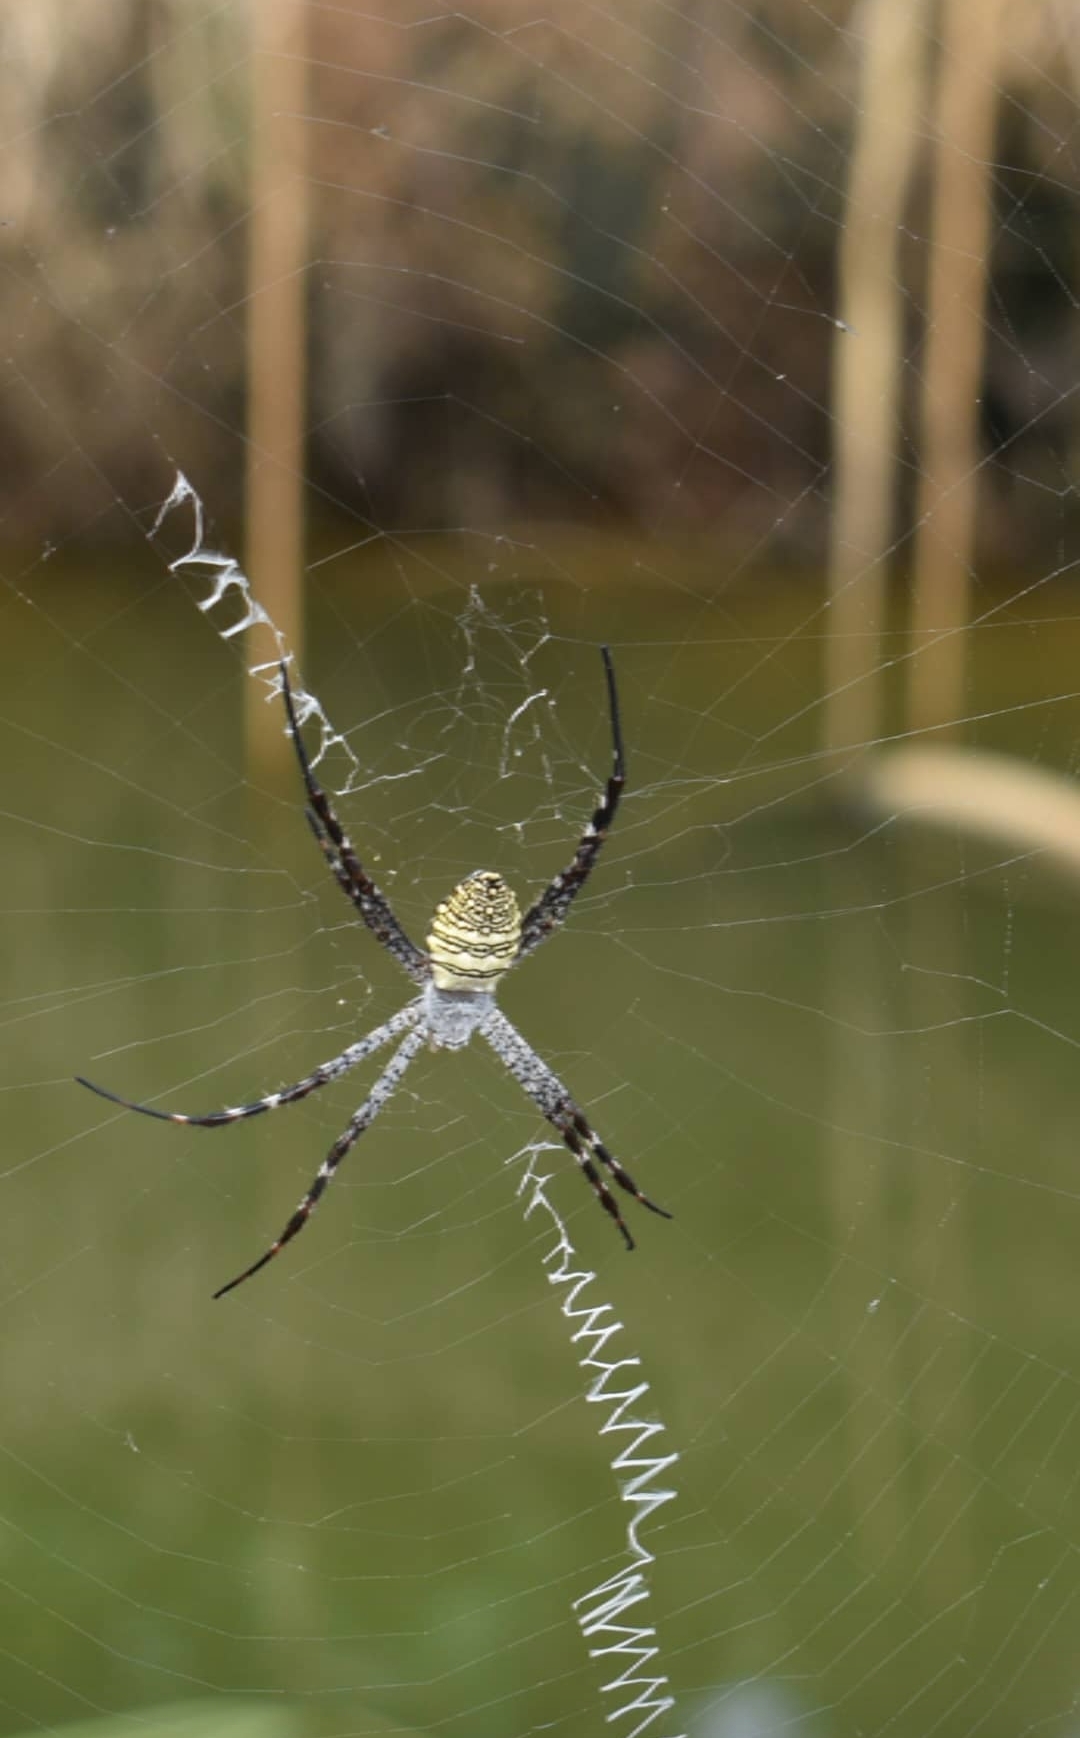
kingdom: Animalia
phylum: Arthropoda
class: Arachnida
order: Araneae
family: Araneidae
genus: Argiope
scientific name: Argiope aemula
